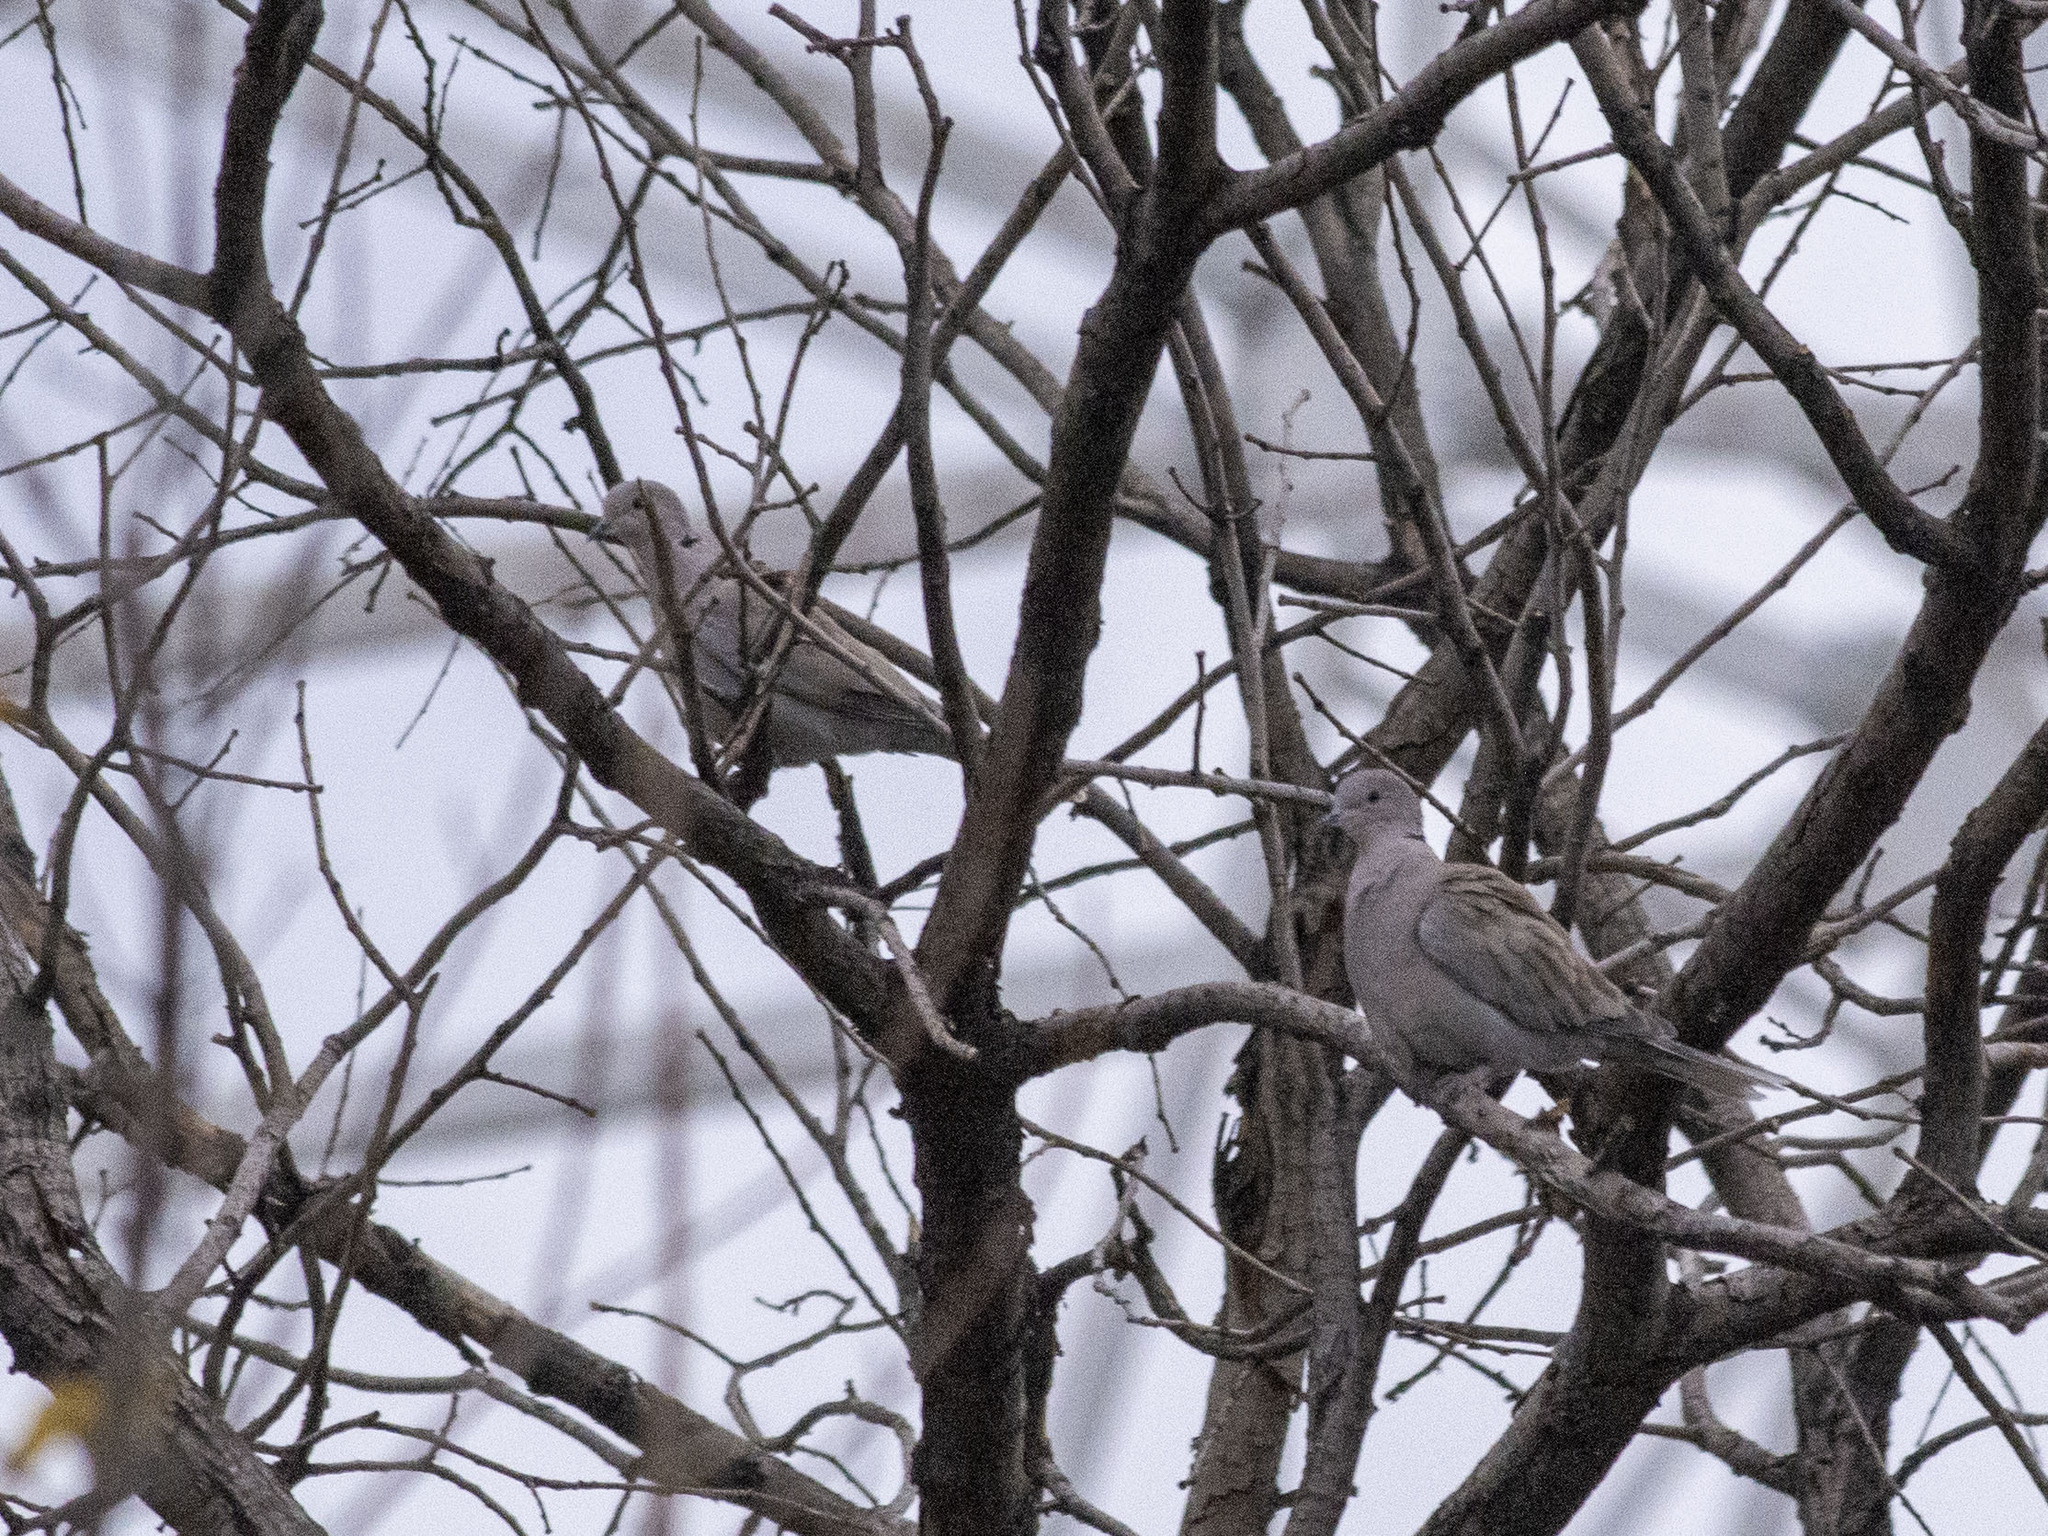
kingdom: Animalia
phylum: Chordata
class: Aves
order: Columbiformes
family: Columbidae
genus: Streptopelia
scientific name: Streptopelia decaocto
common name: Eurasian collared dove
